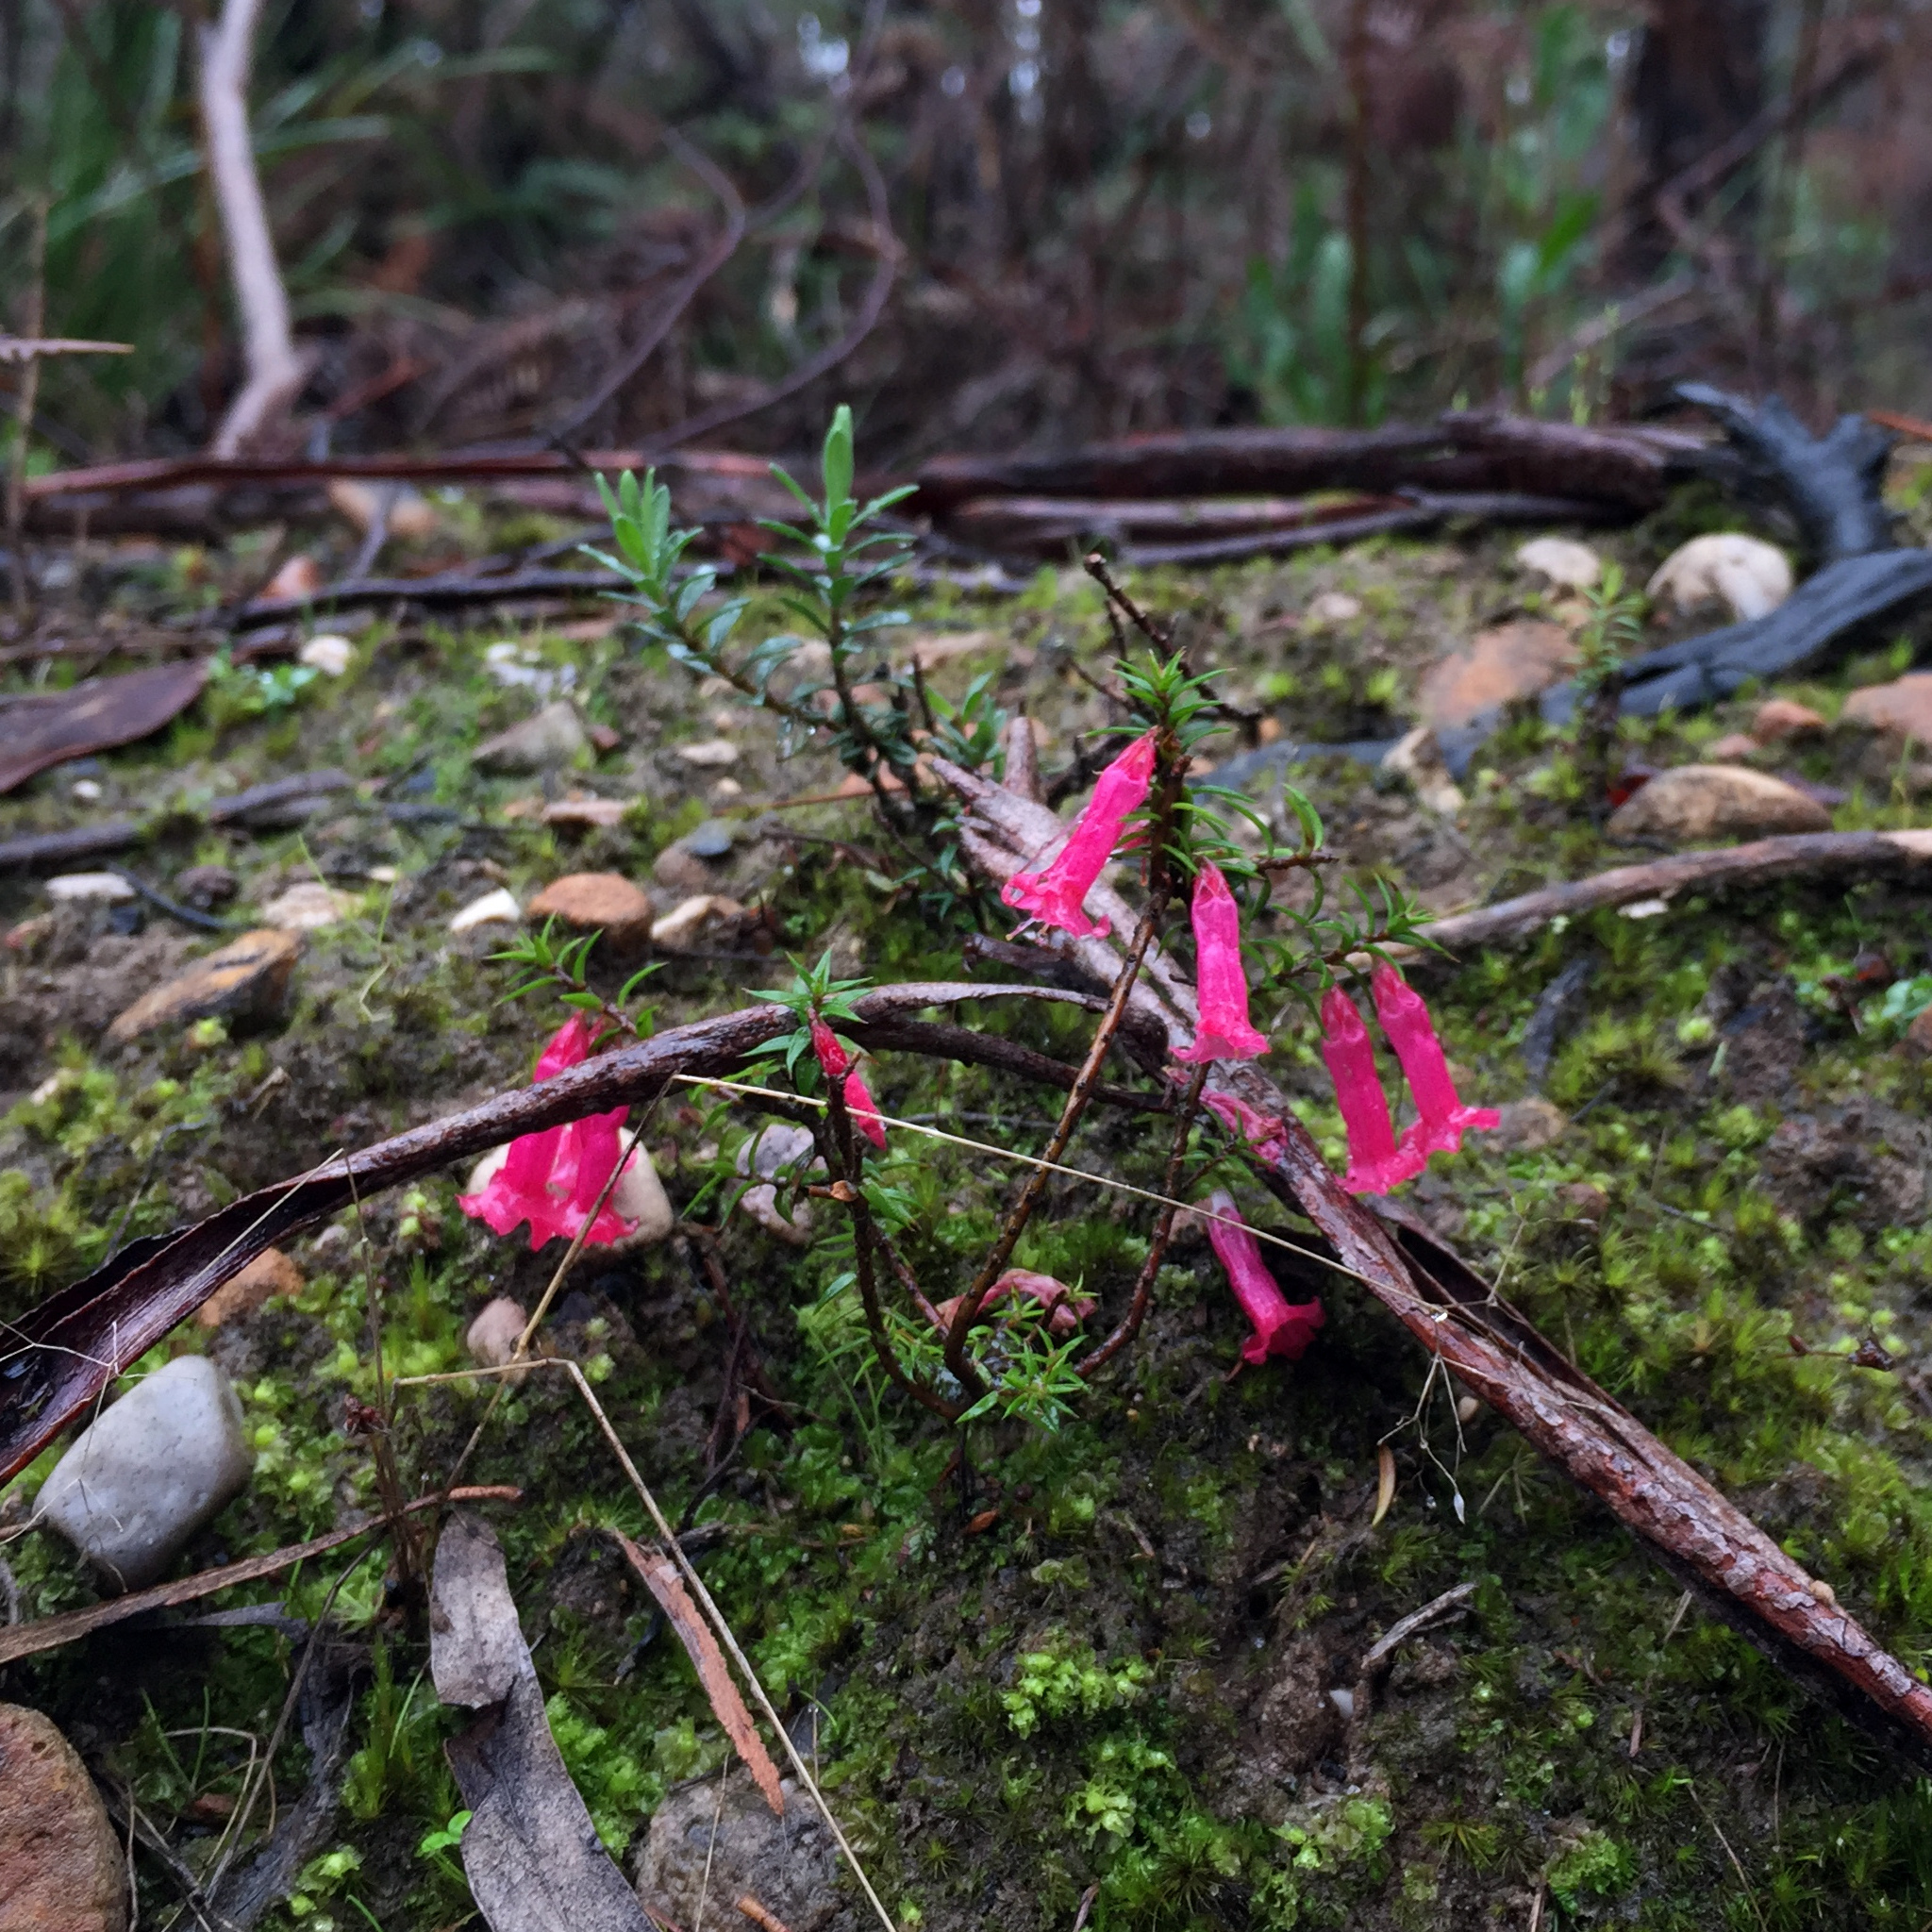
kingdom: Plantae
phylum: Tracheophyta
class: Magnoliopsida
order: Ericales
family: Ericaceae
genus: Epacris
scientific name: Epacris impressa
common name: Common-heath
